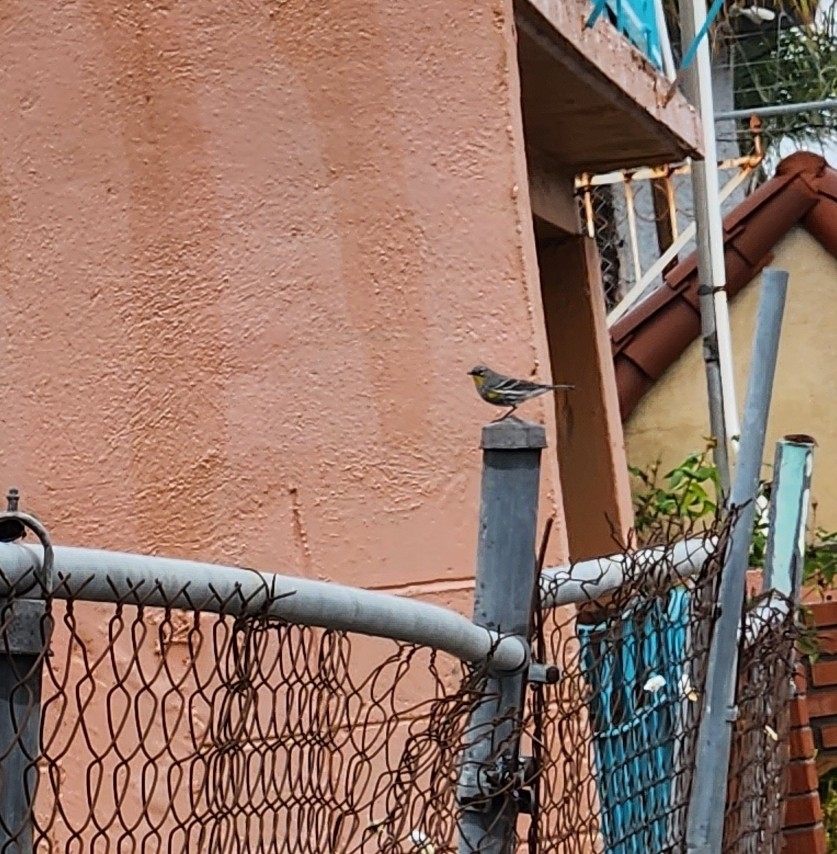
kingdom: Animalia
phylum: Chordata
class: Aves
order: Passeriformes
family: Parulidae
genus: Setophaga
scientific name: Setophaga auduboni
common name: Audubon's warbler
